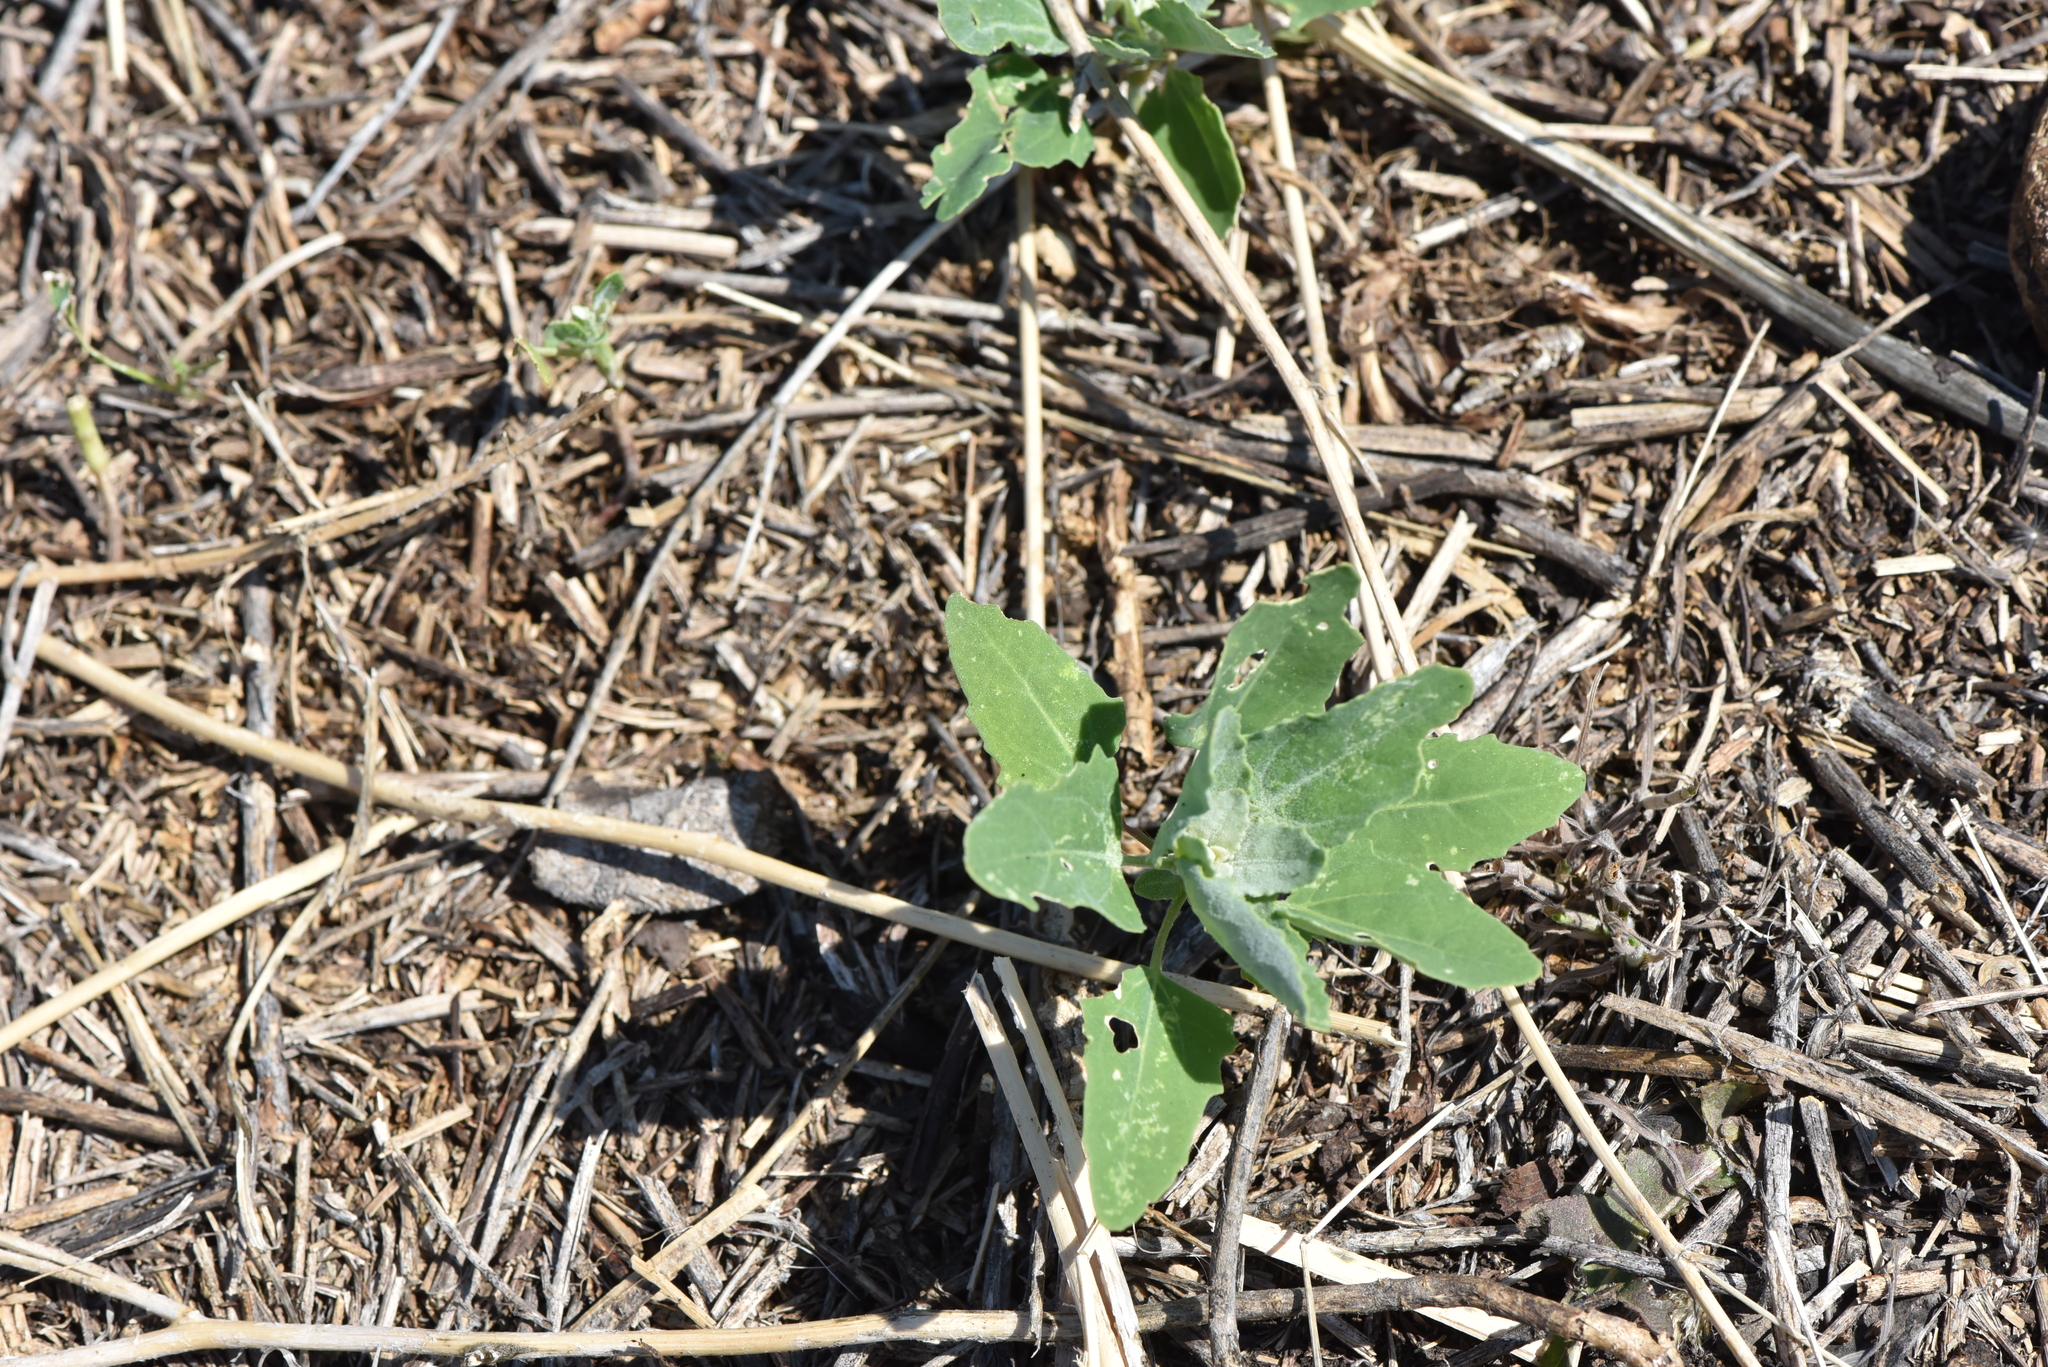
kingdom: Plantae
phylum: Tracheophyta
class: Magnoliopsida
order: Caryophyllales
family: Amaranthaceae
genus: Chenopodium
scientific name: Chenopodium album
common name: Fat-hen
